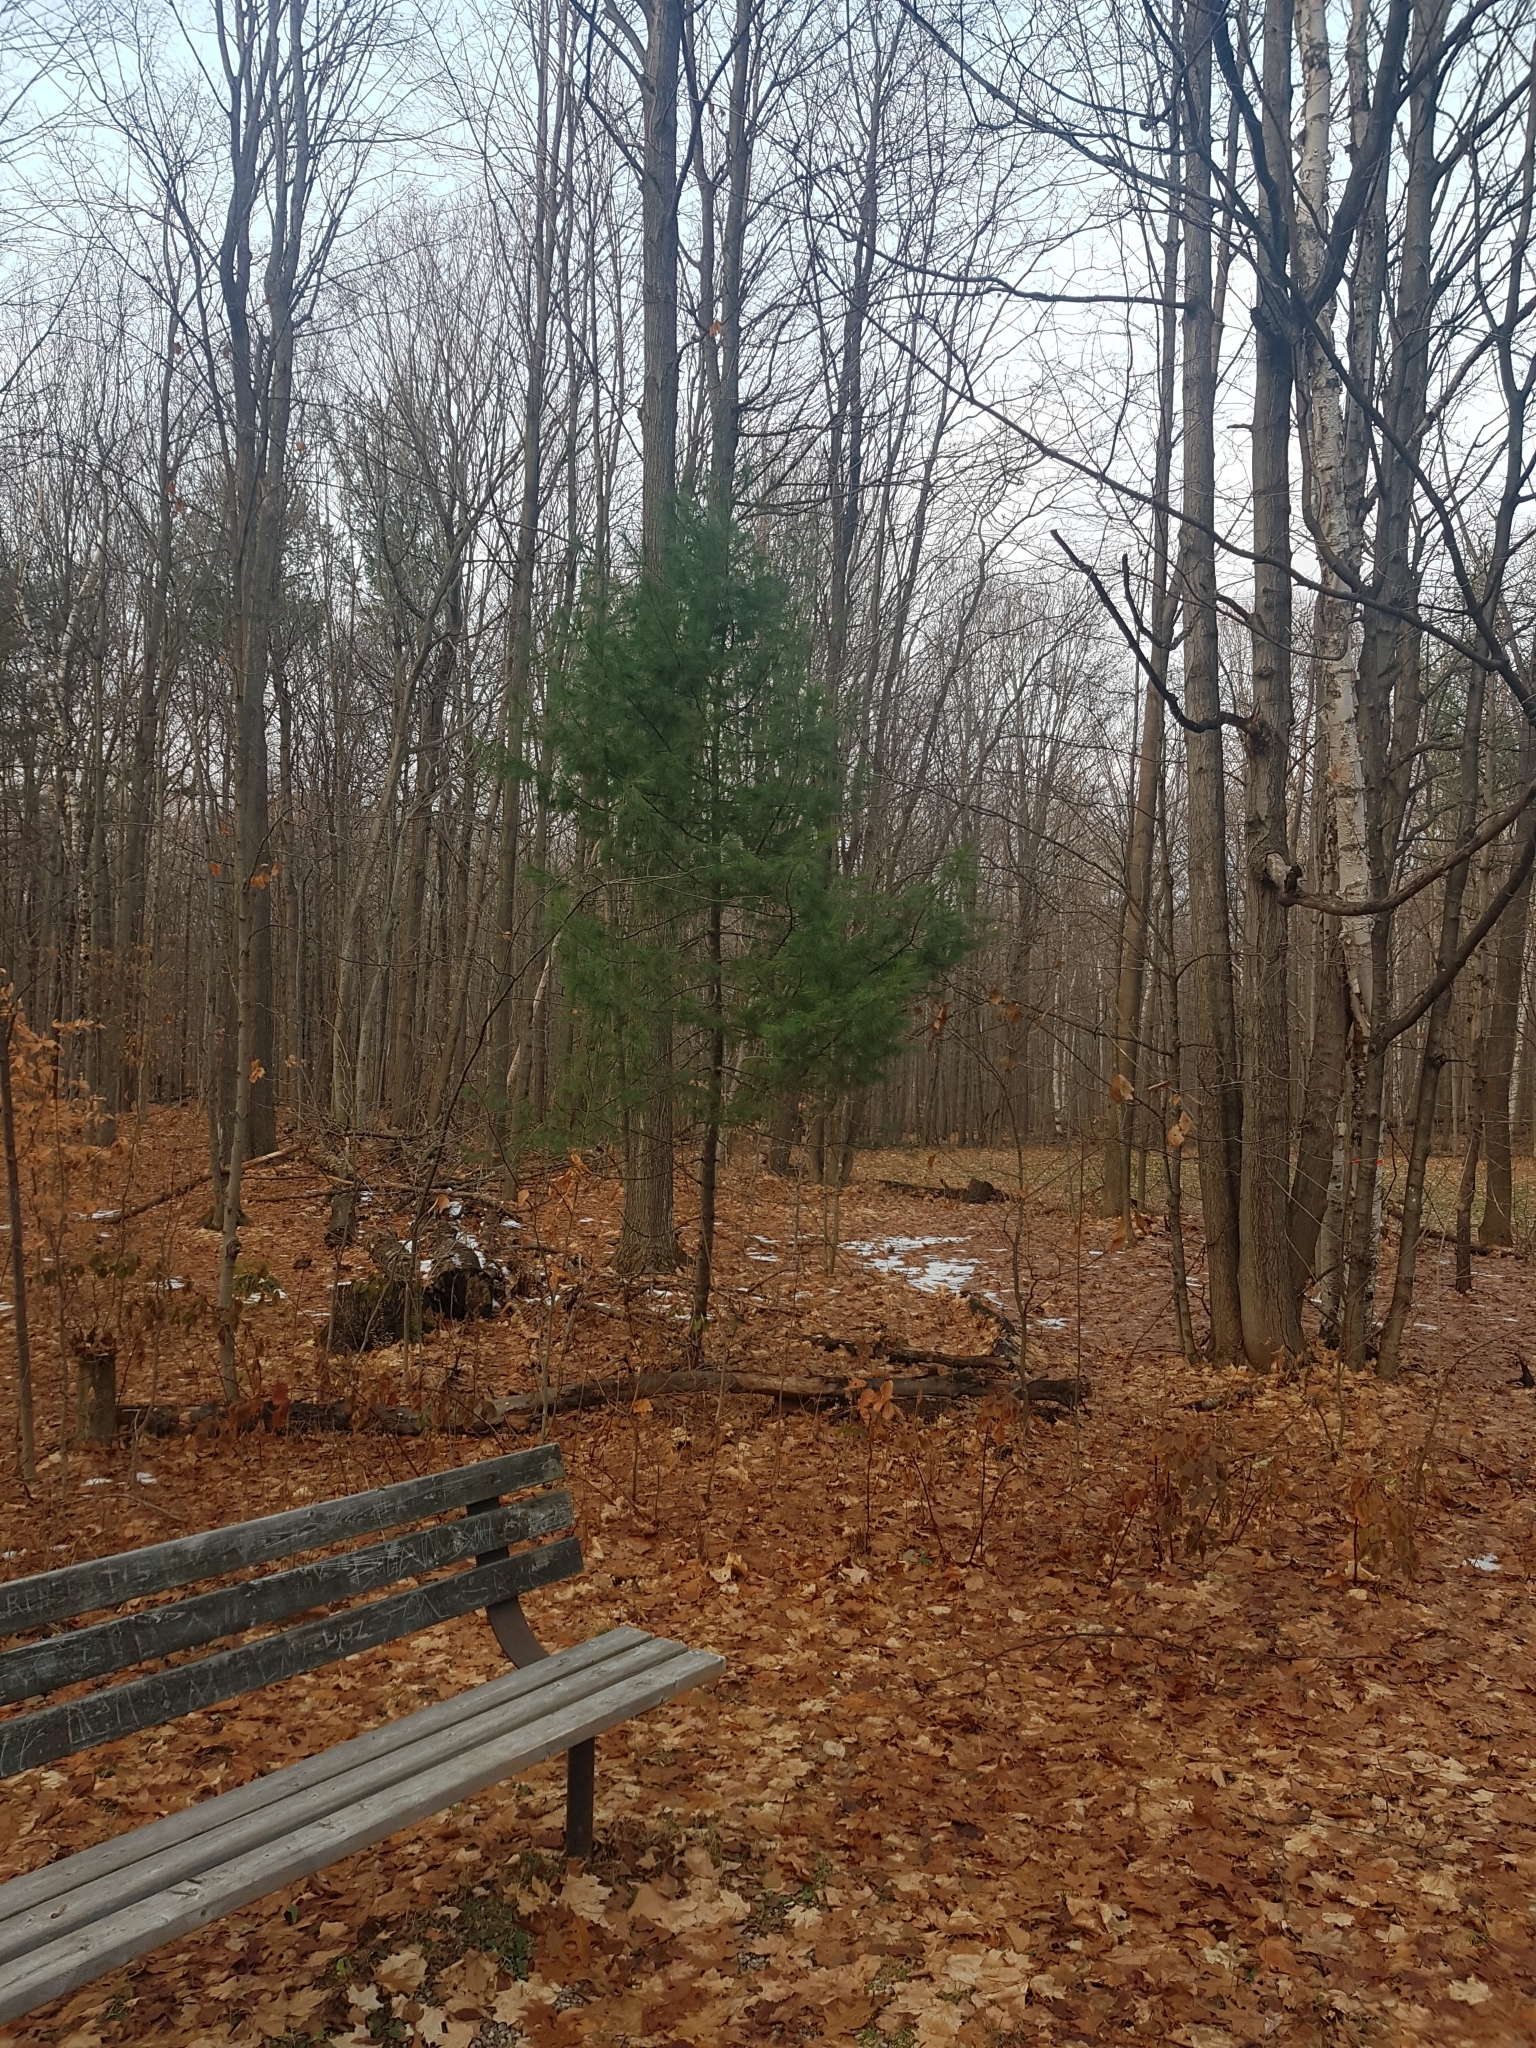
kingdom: Plantae
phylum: Tracheophyta
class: Pinopsida
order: Pinales
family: Pinaceae
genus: Pinus
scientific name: Pinus strobus
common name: Weymouth pine
